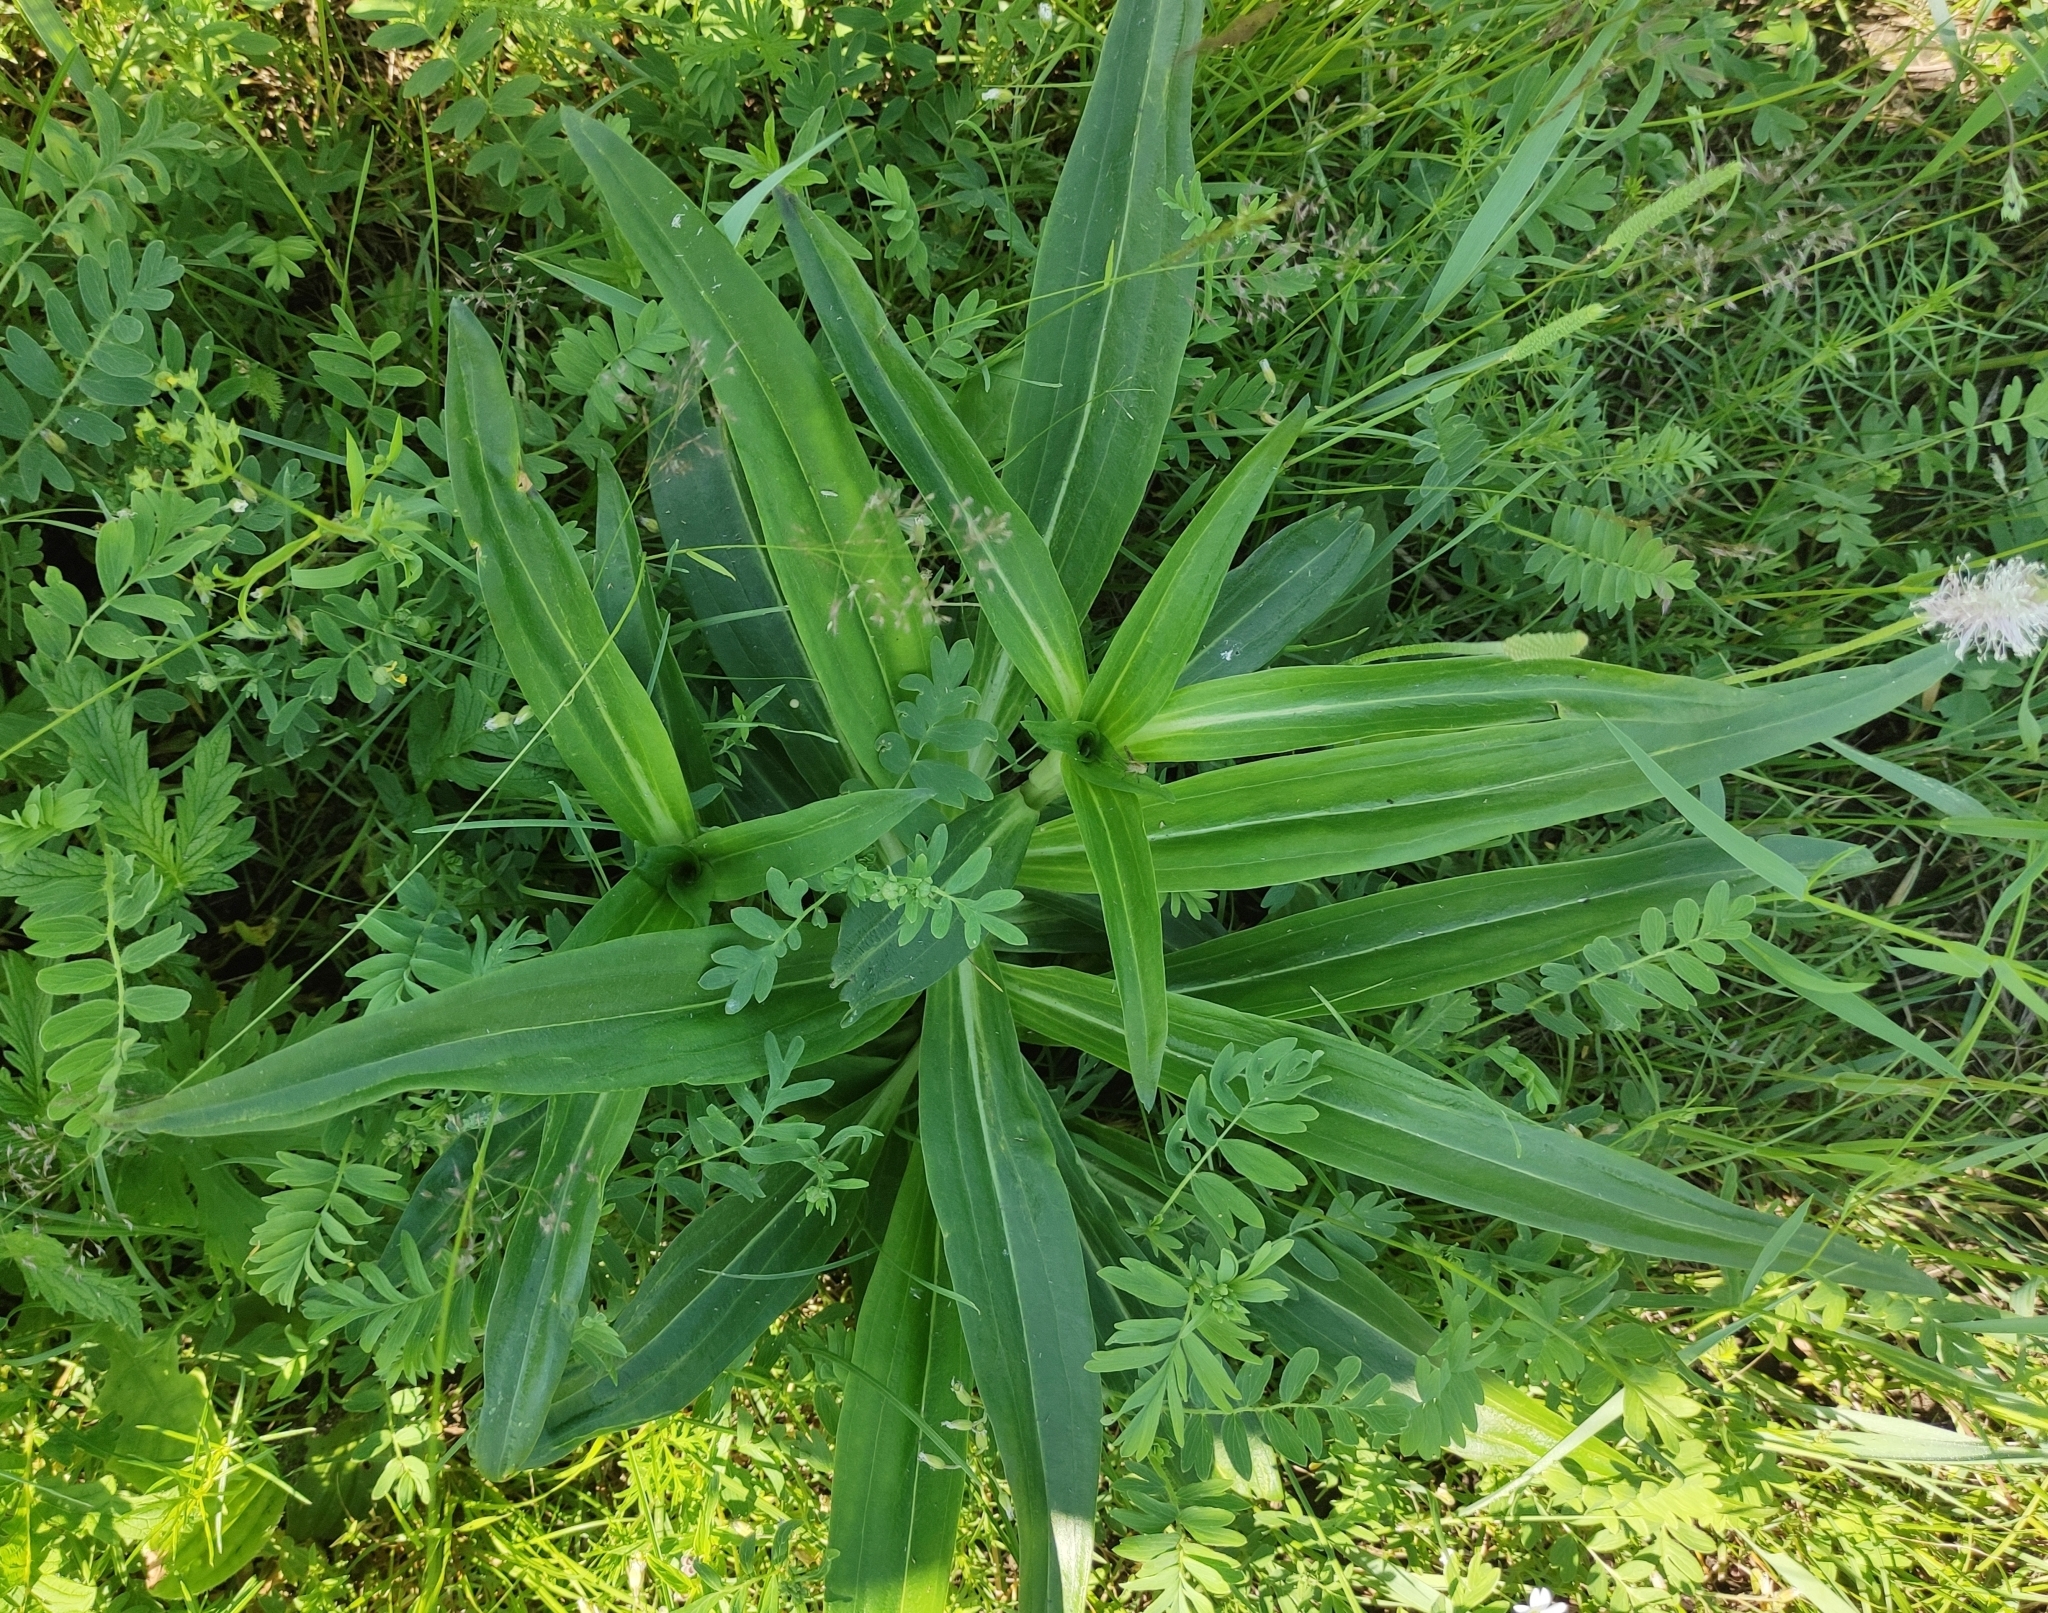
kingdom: Plantae
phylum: Tracheophyta
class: Magnoliopsida
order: Gentianales
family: Gentianaceae
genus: Gentiana
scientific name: Gentiana macrophylla
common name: Large-leaf gentian
